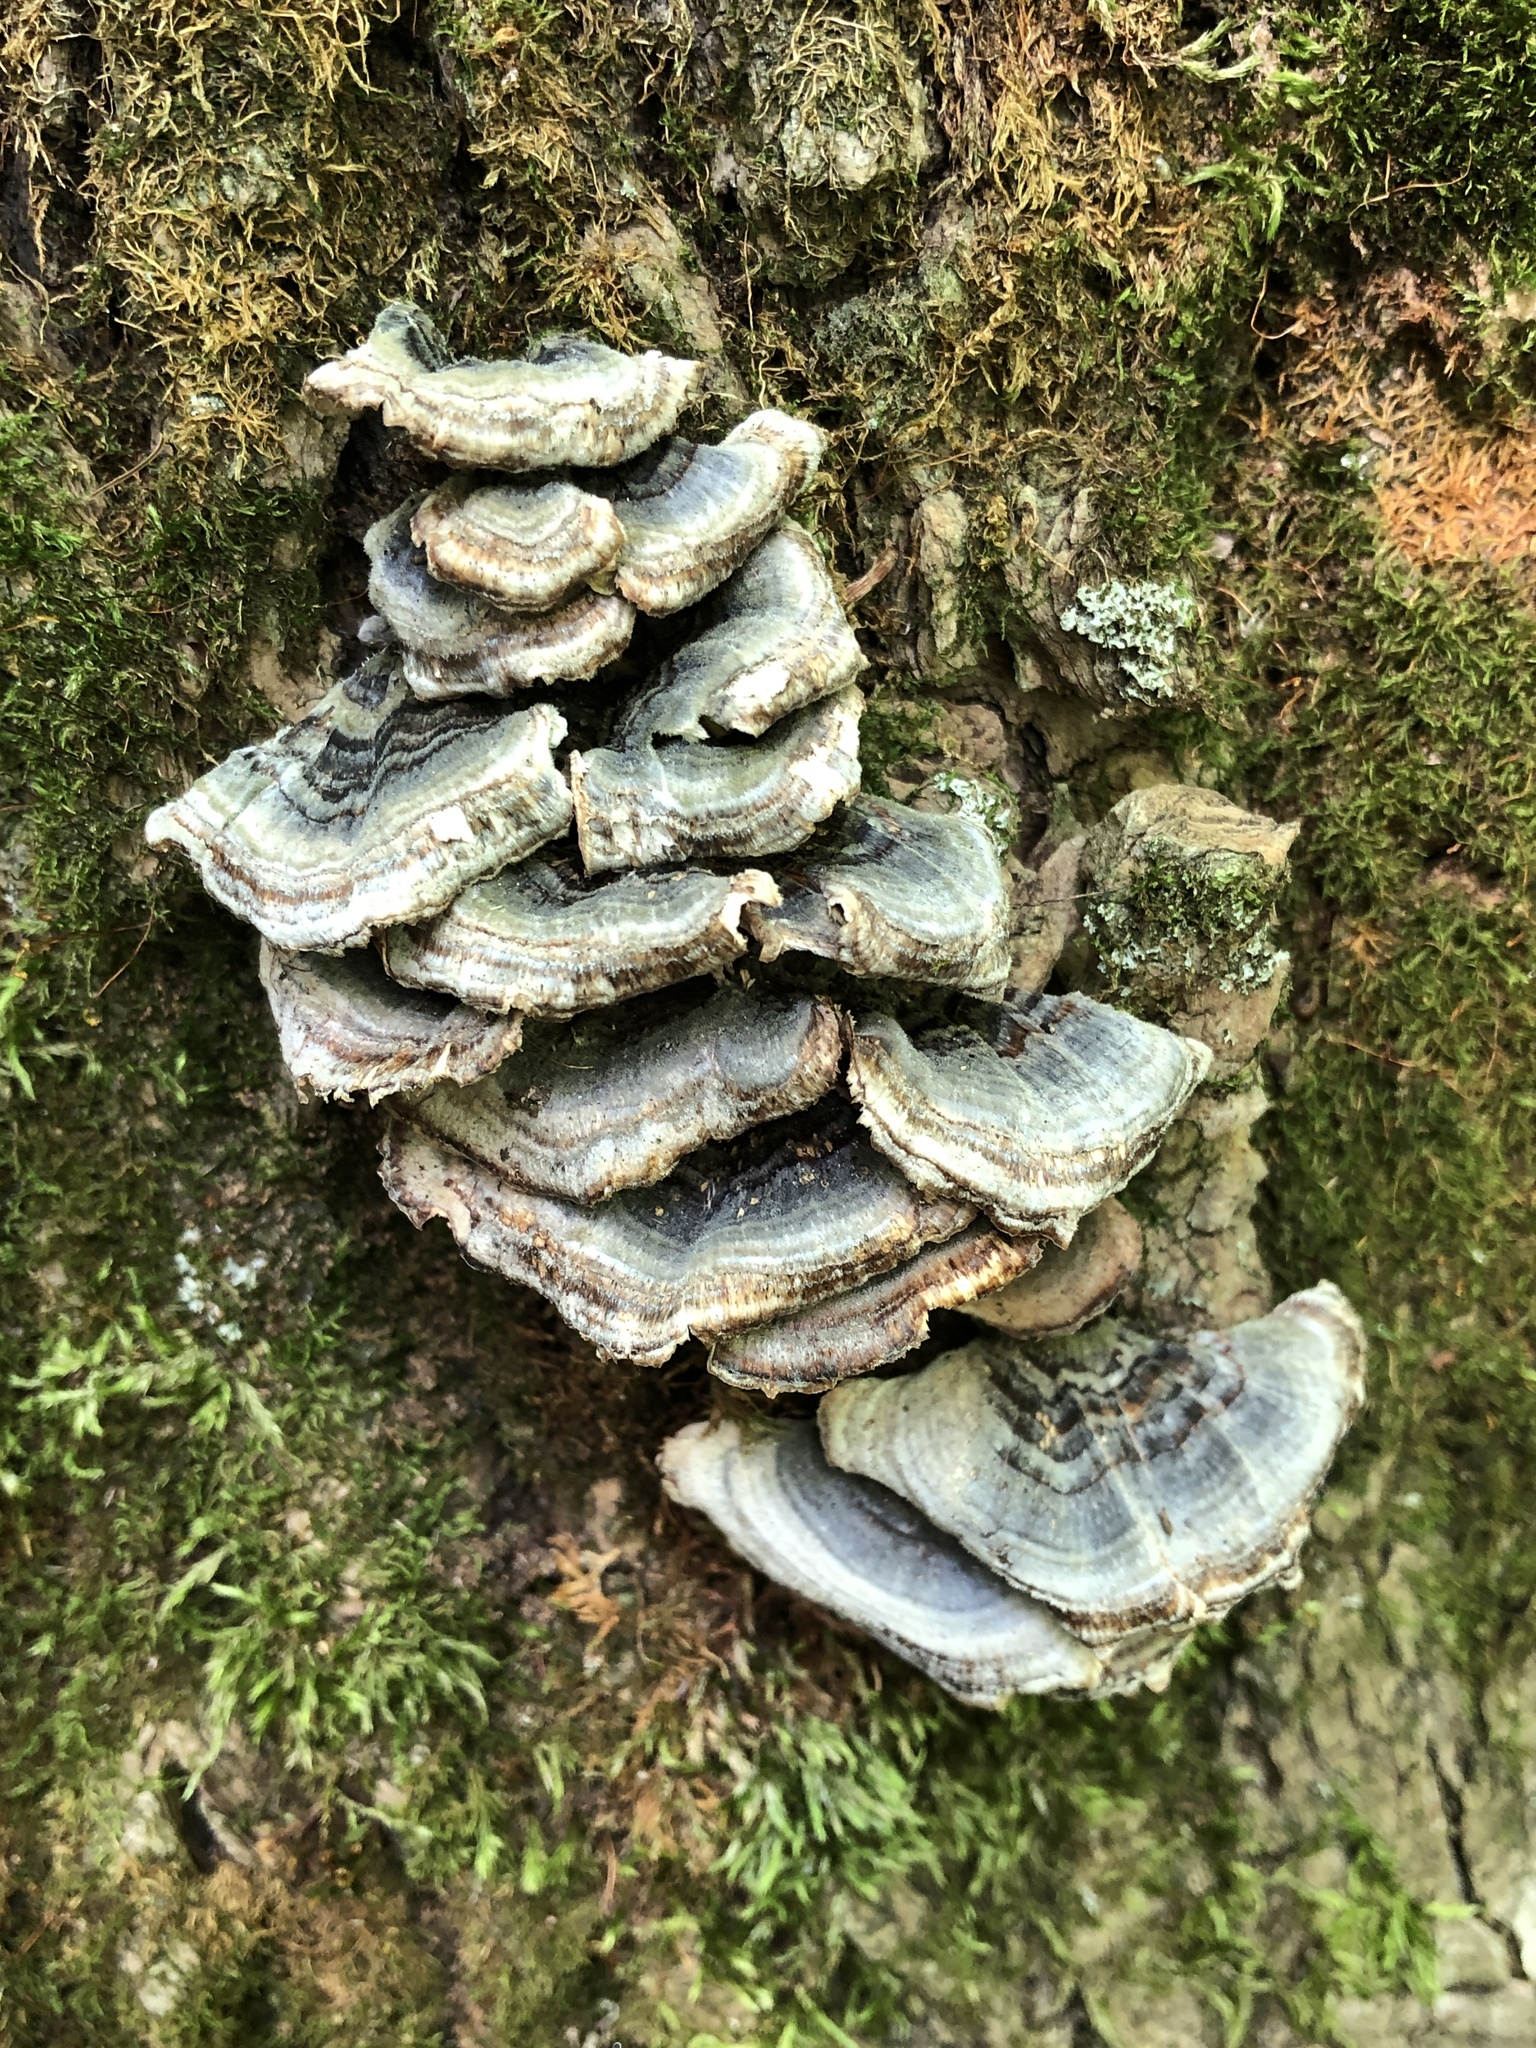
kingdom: Fungi
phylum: Basidiomycota
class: Agaricomycetes
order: Polyporales
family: Polyporaceae
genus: Trametes
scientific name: Trametes versicolor
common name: Turkeytail
